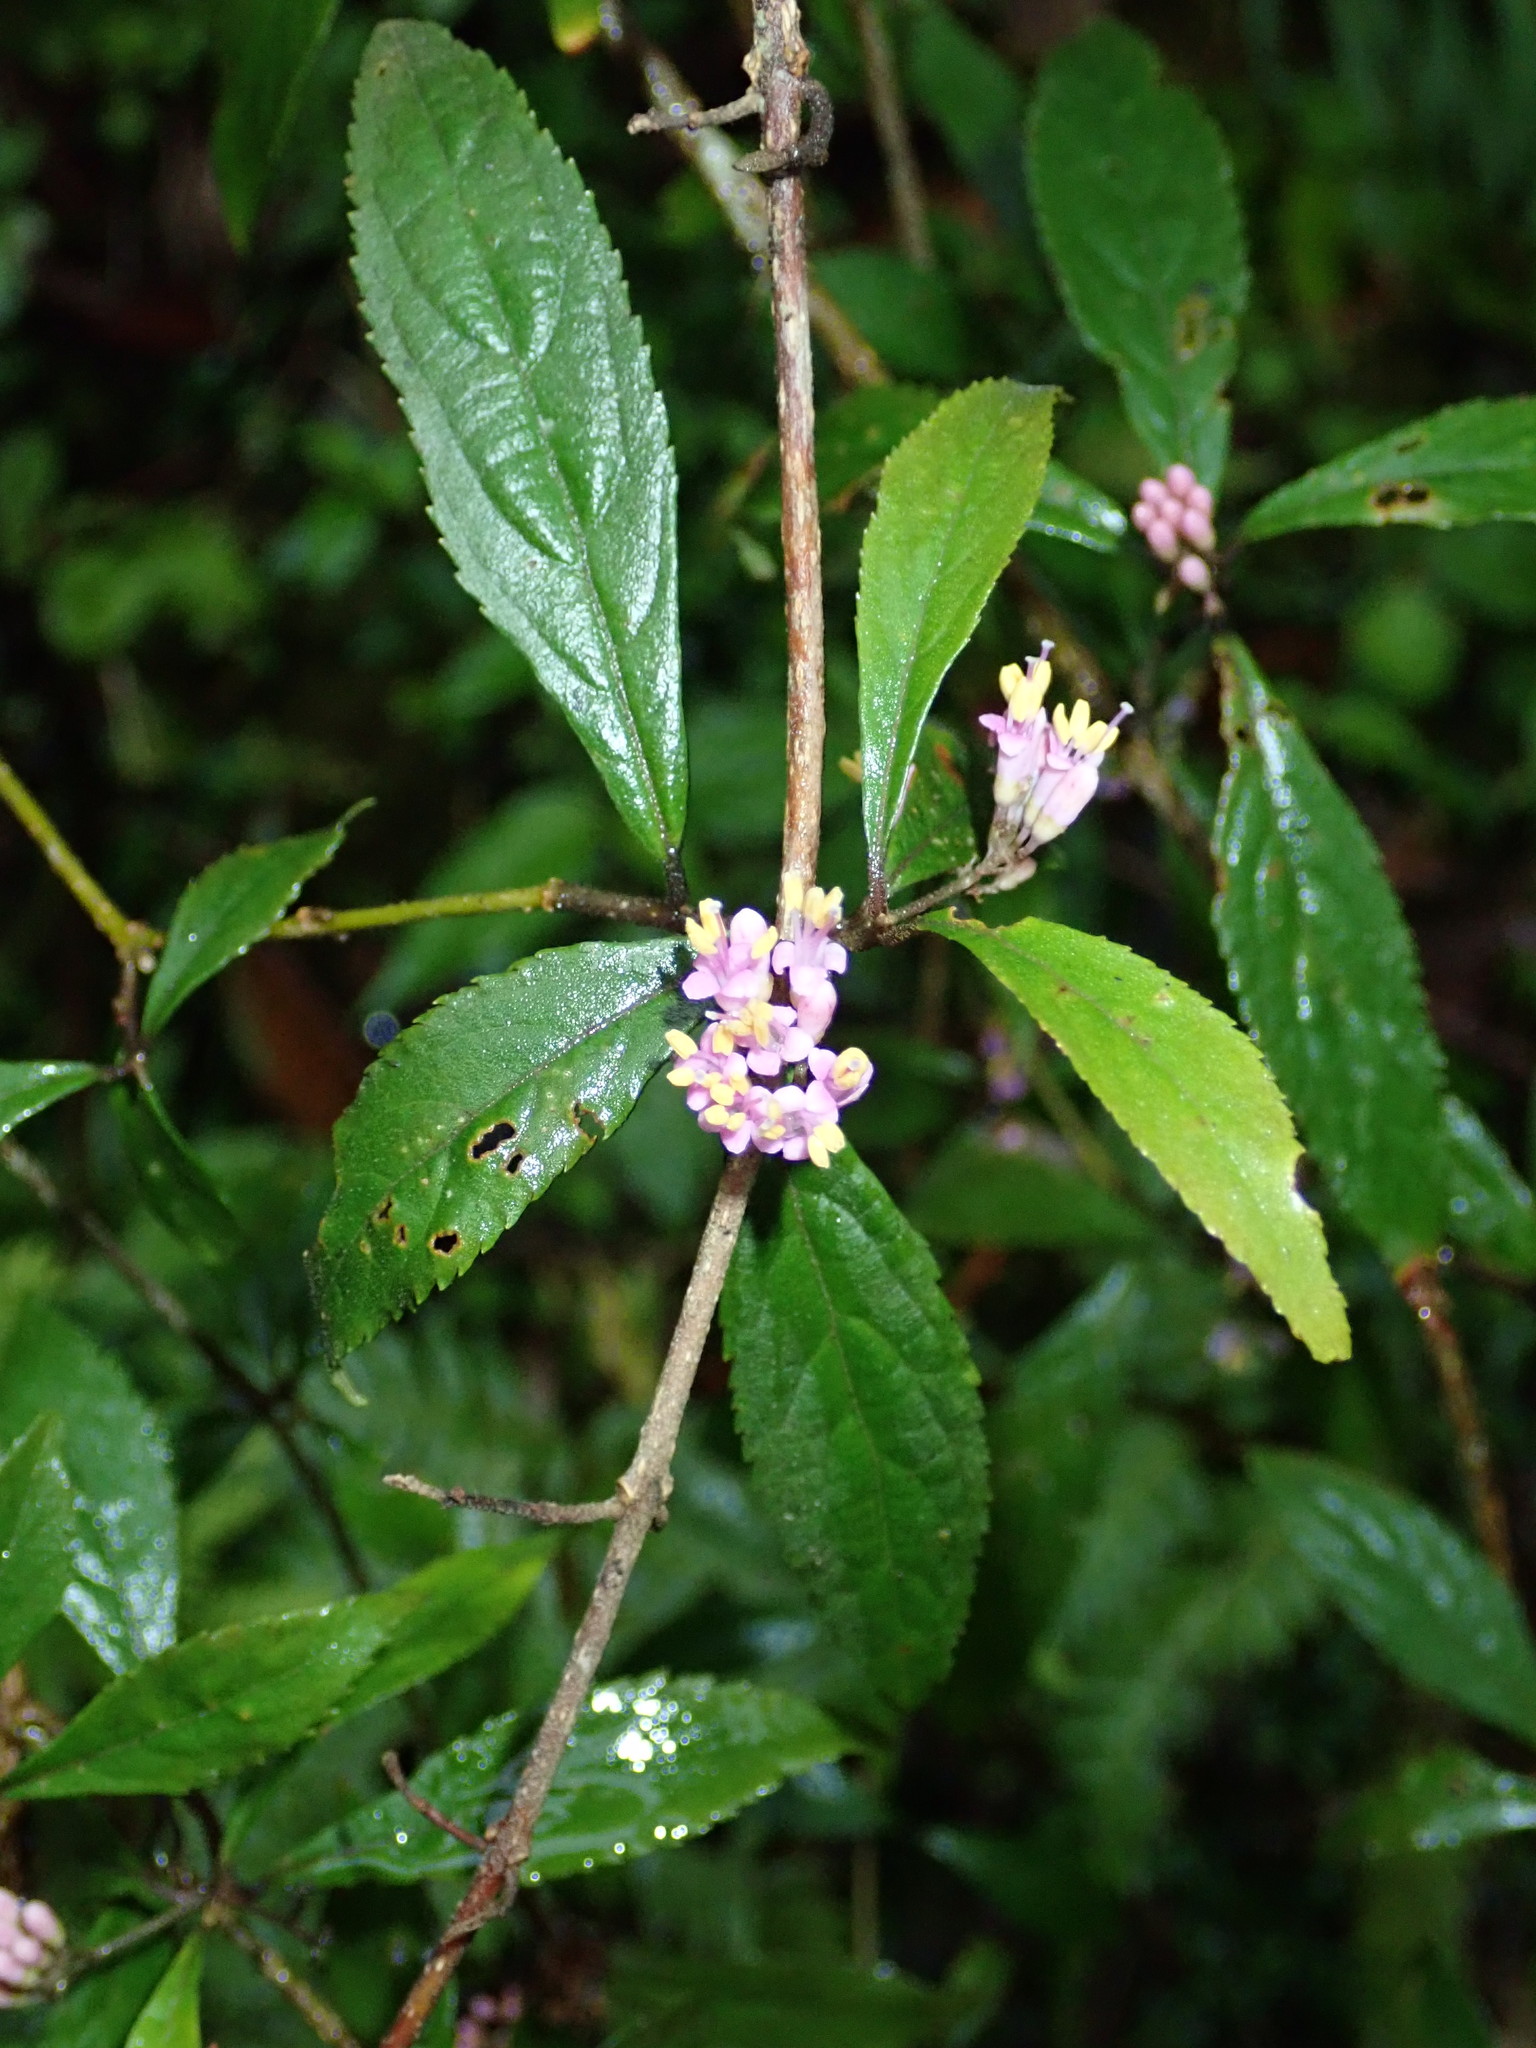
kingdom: Plantae
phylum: Tracheophyta
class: Magnoliopsida
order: Lamiales
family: Lamiaceae
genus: Callicarpa
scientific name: Callicarpa randaiensis
